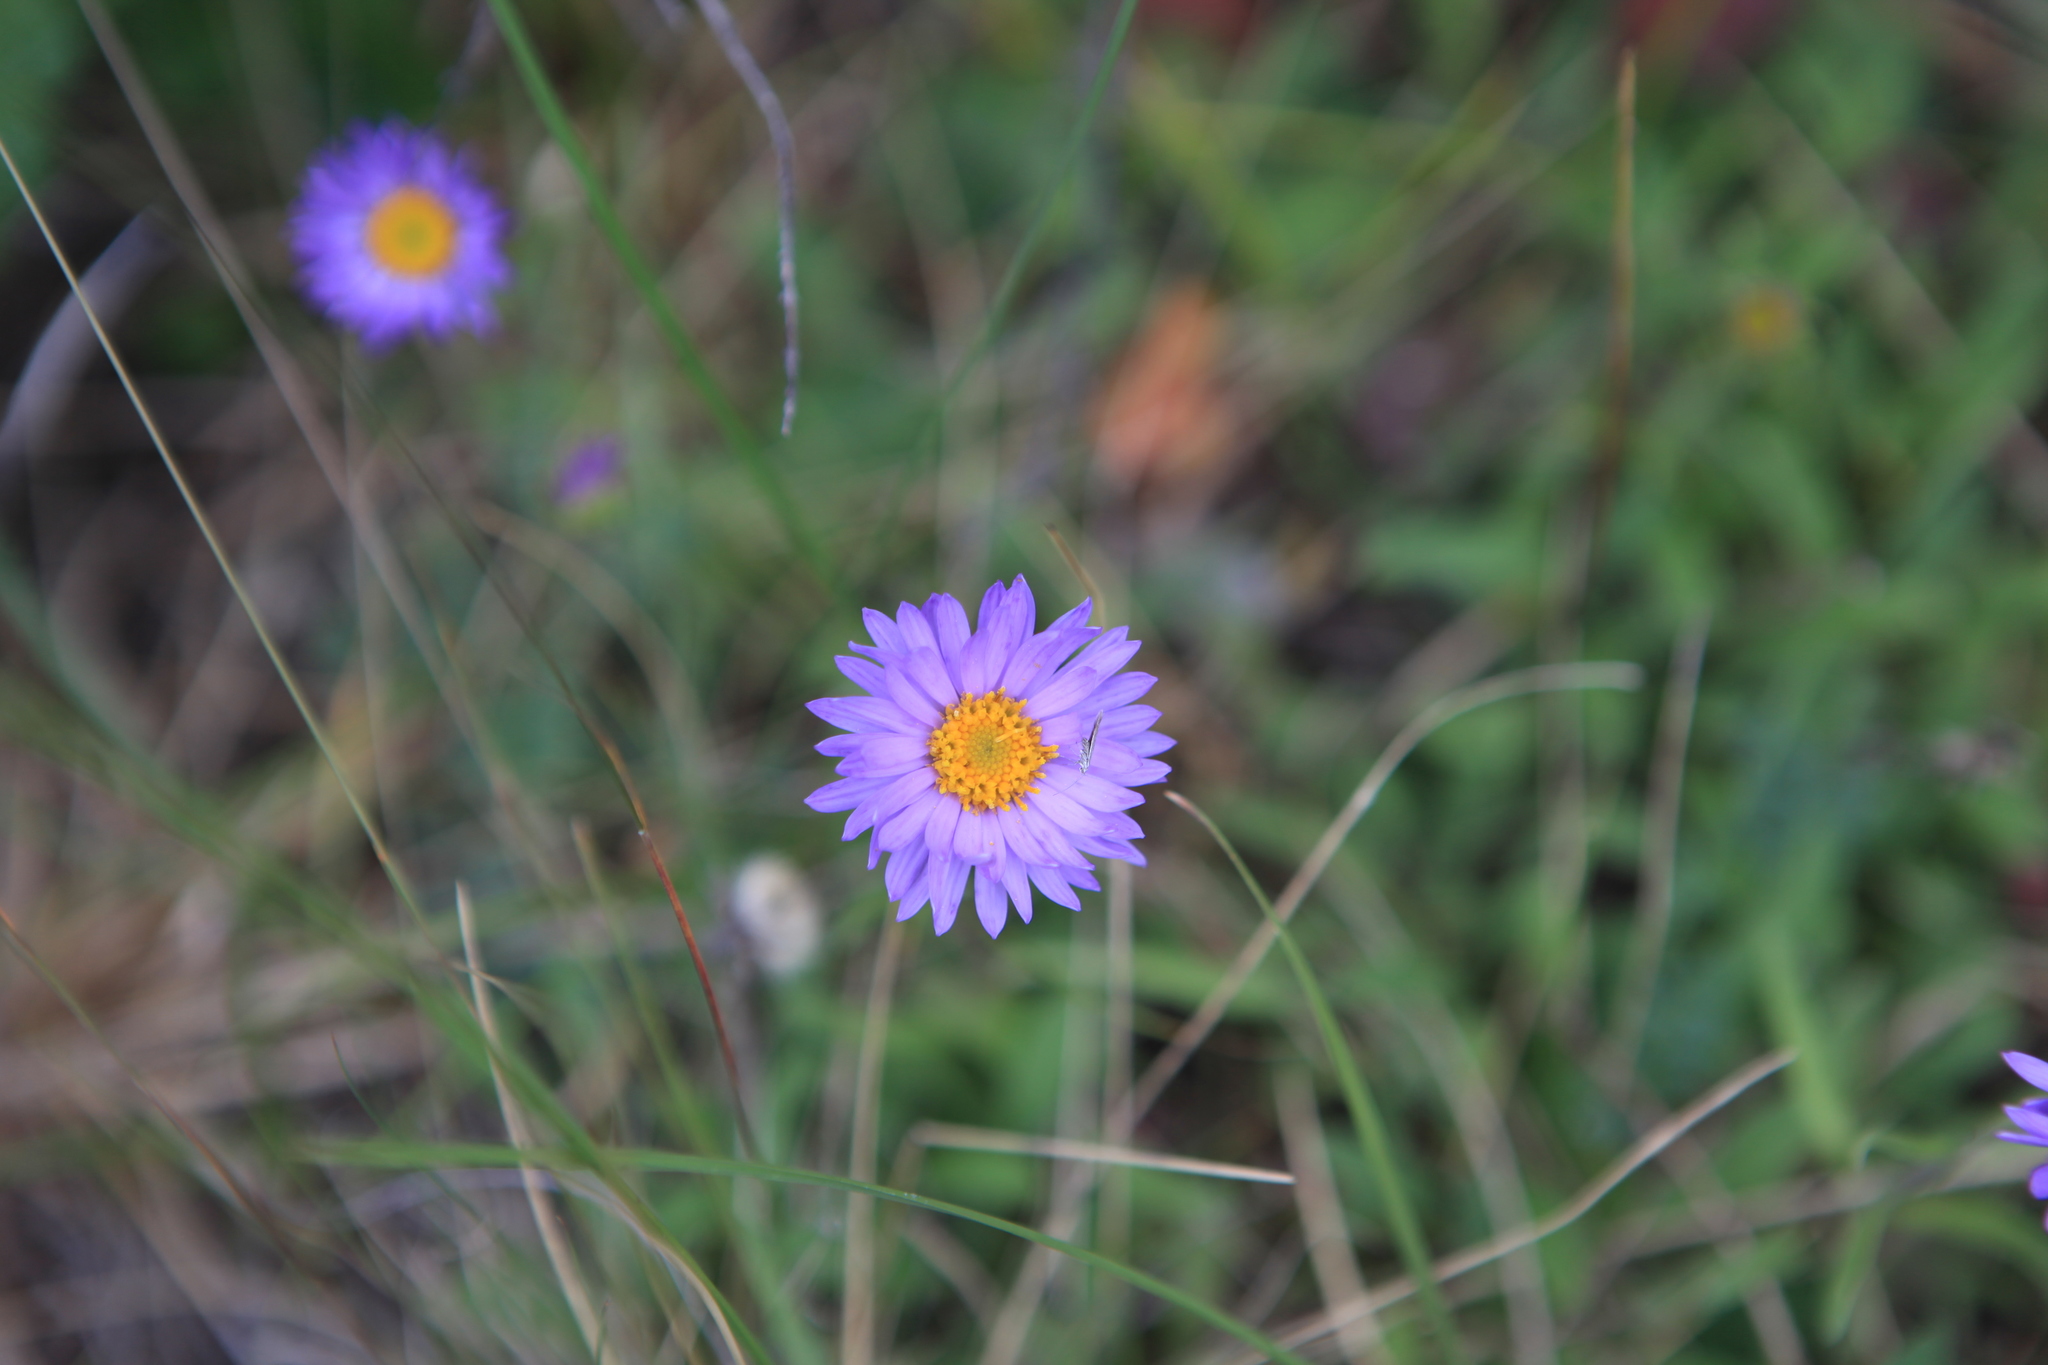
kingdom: Plantae
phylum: Tracheophyta
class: Magnoliopsida
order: Asterales
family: Asteraceae
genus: Aster
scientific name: Aster alpinus
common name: Alpine aster
